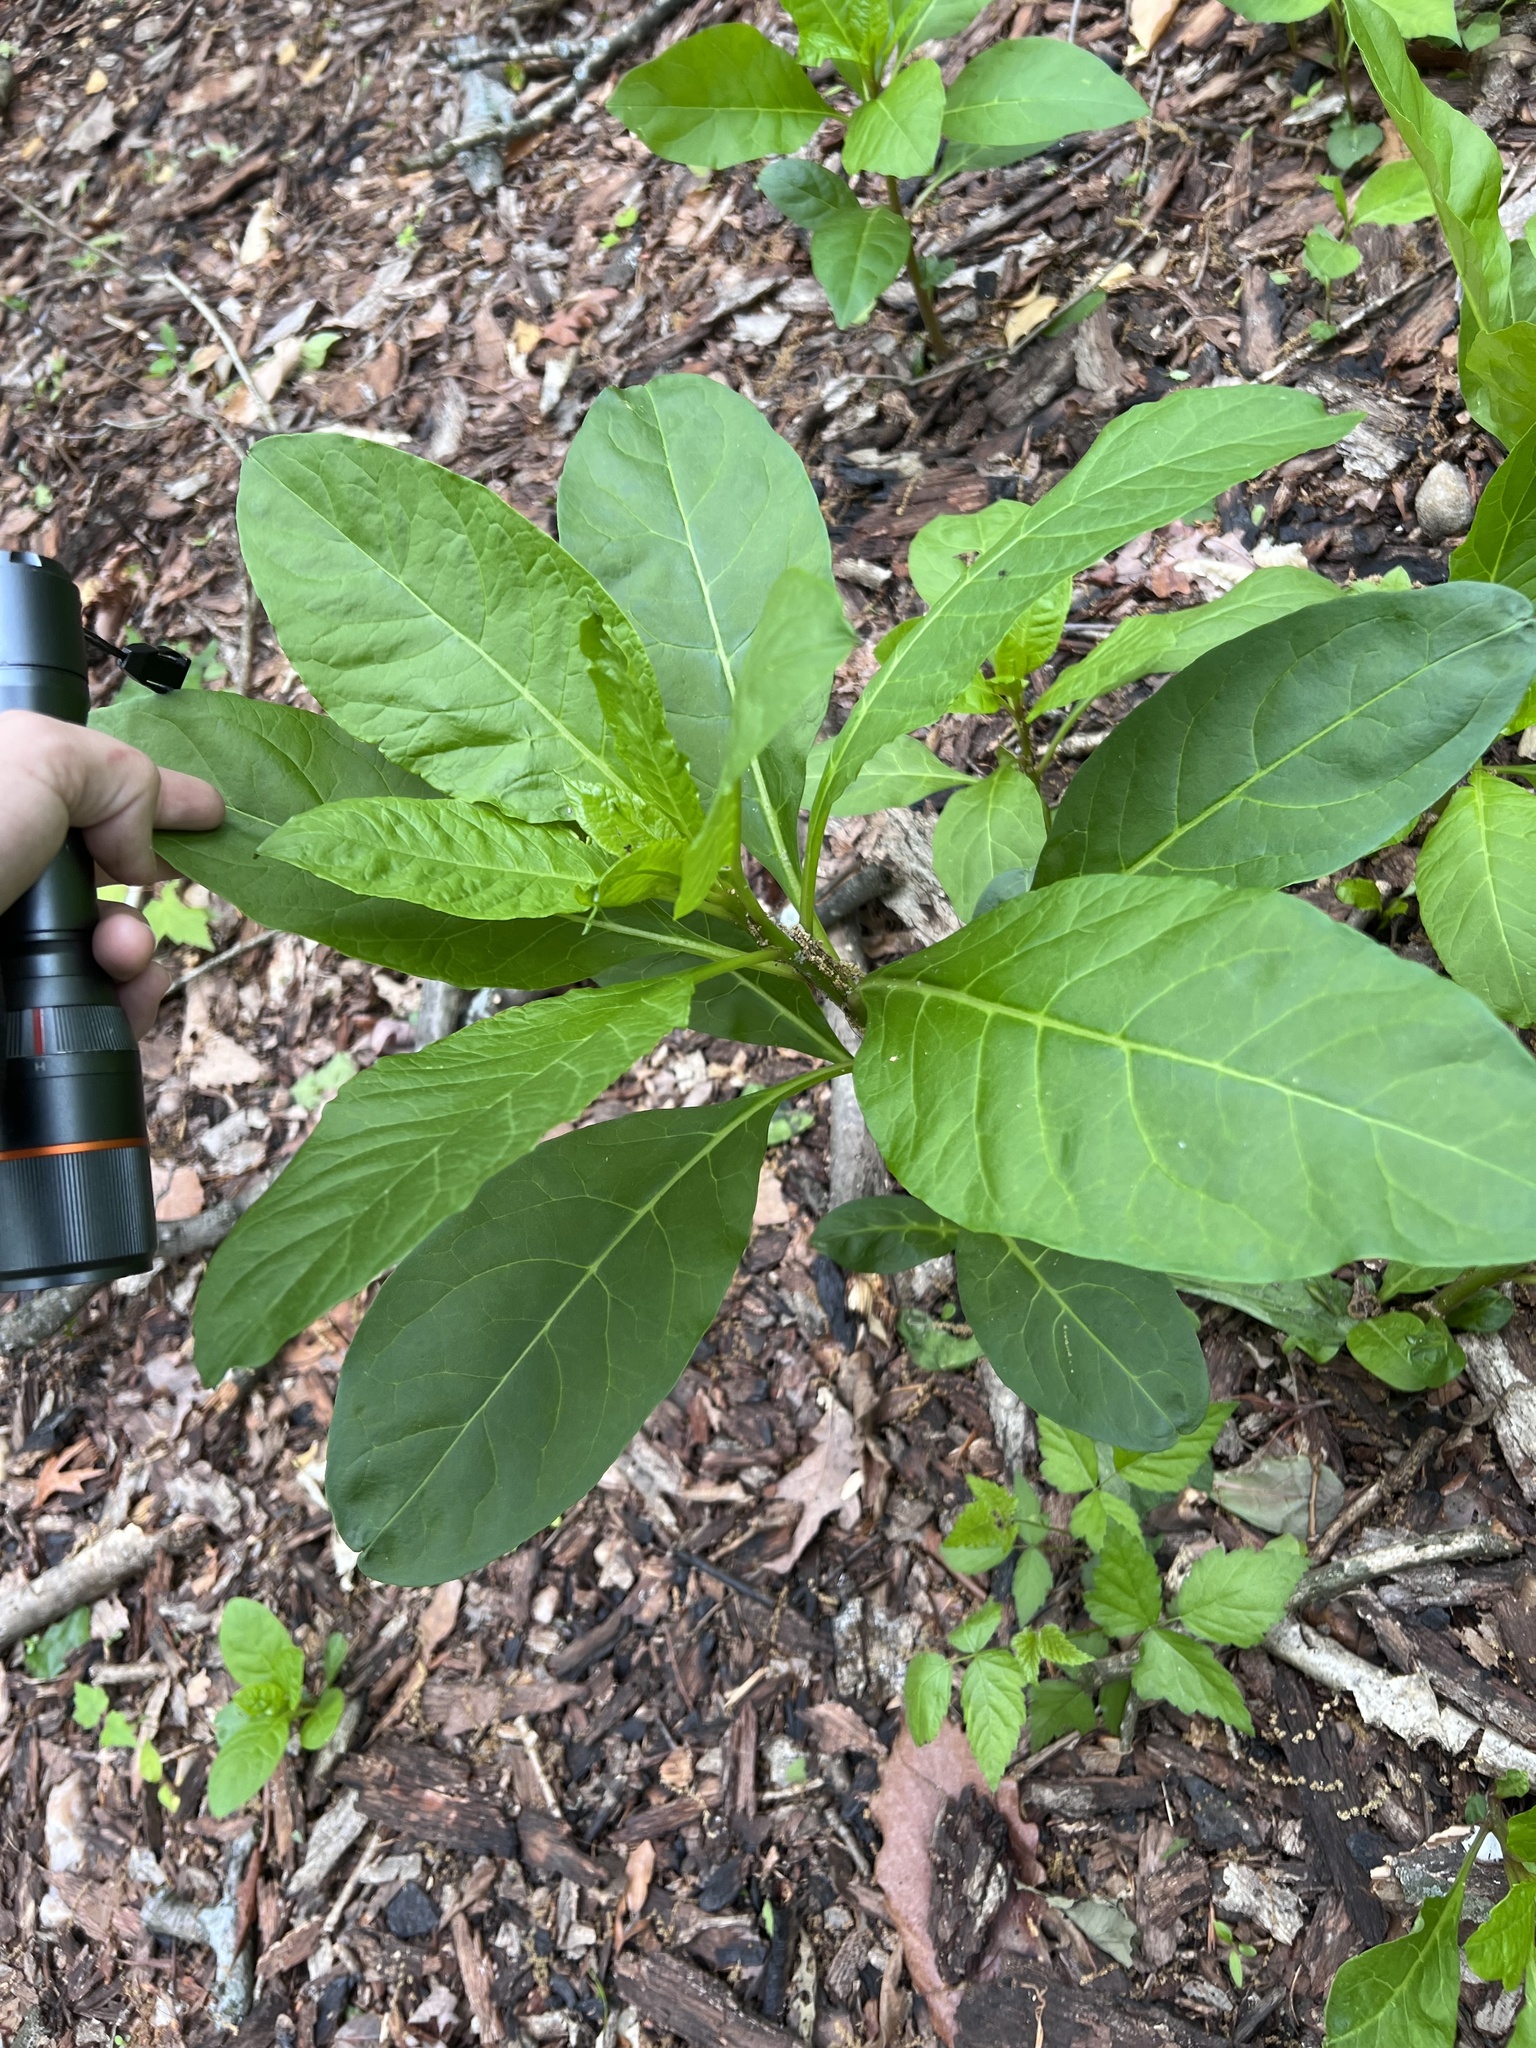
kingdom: Plantae
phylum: Tracheophyta
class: Magnoliopsida
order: Caryophyllales
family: Phytolaccaceae
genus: Phytolacca
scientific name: Phytolacca americana
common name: American pokeweed
